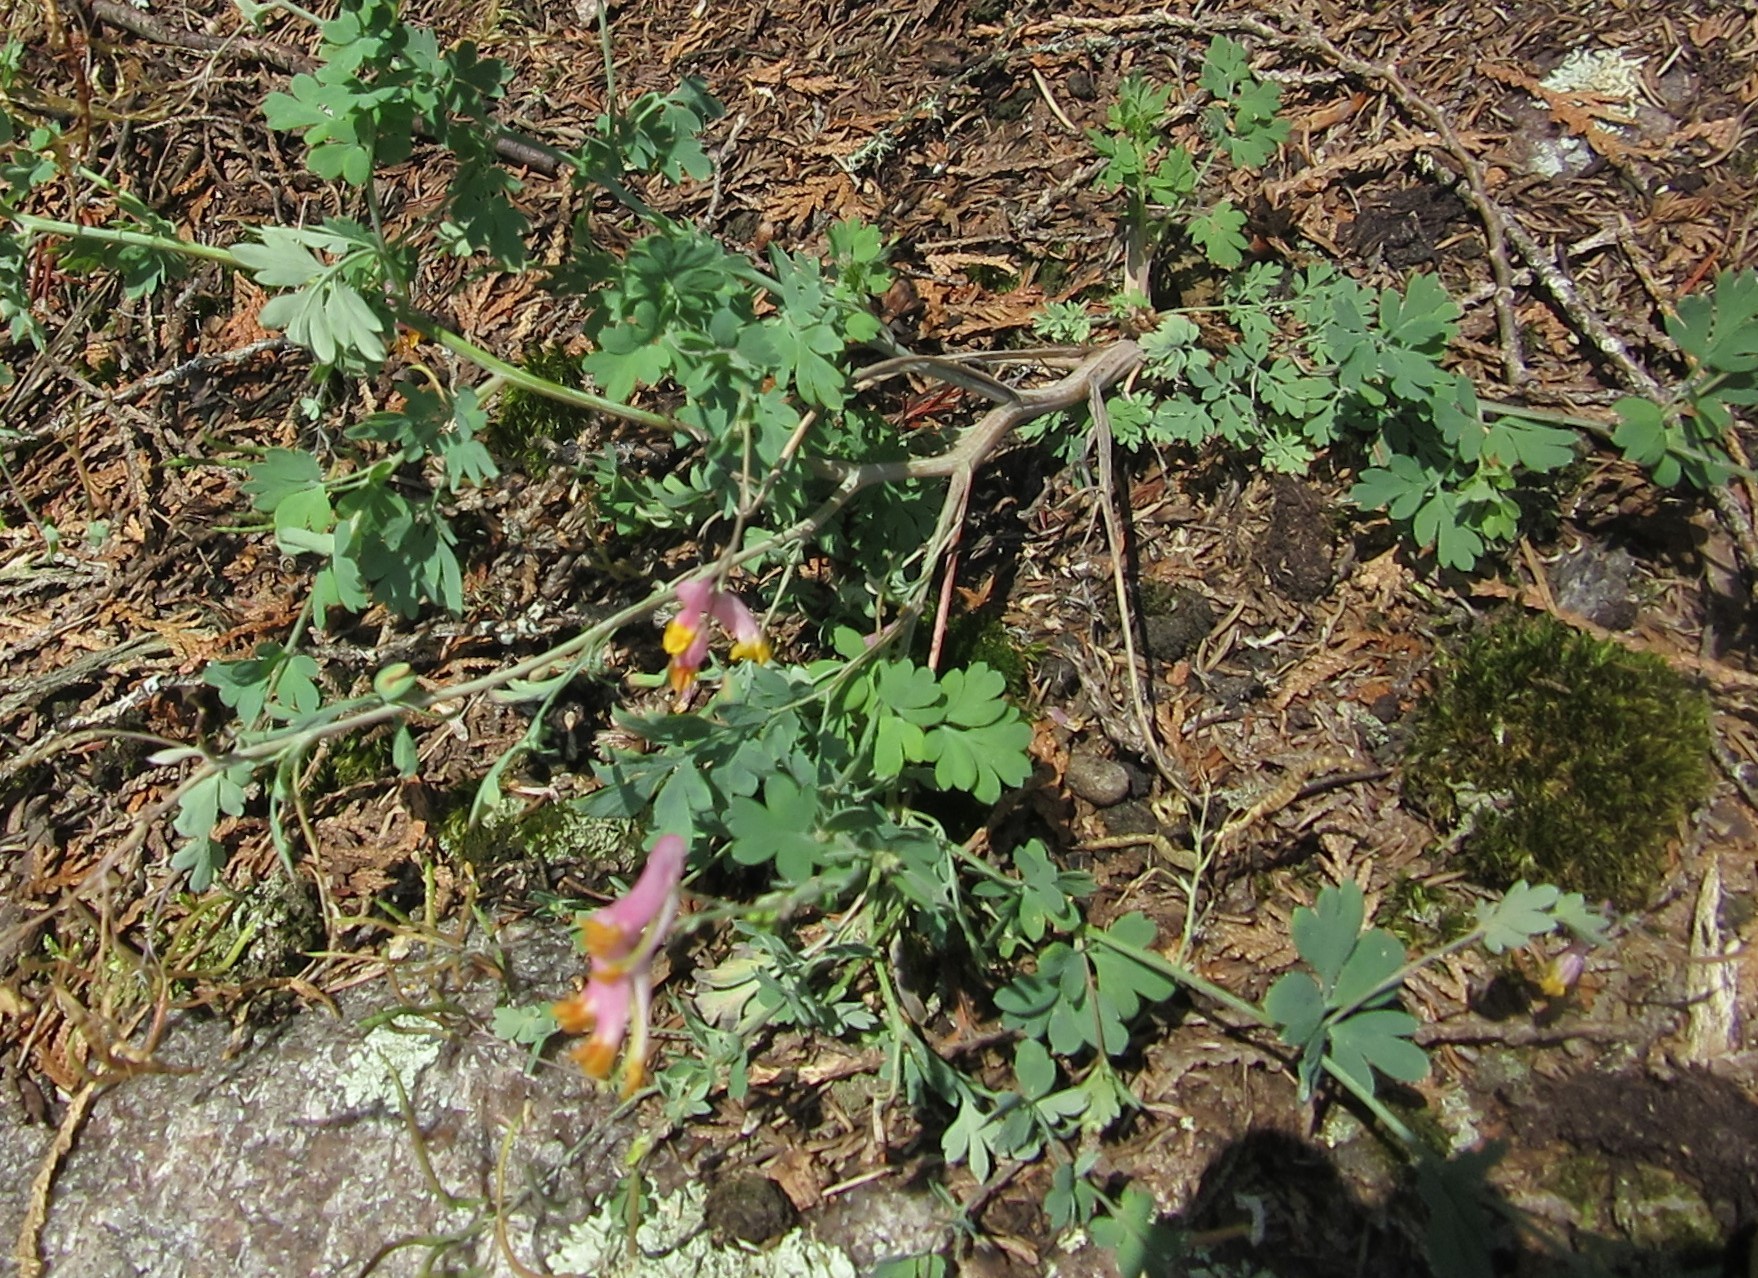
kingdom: Plantae
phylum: Tracheophyta
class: Magnoliopsida
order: Ranunculales
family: Papaveraceae
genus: Capnoides
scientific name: Capnoides sempervirens
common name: Rock harlequin
